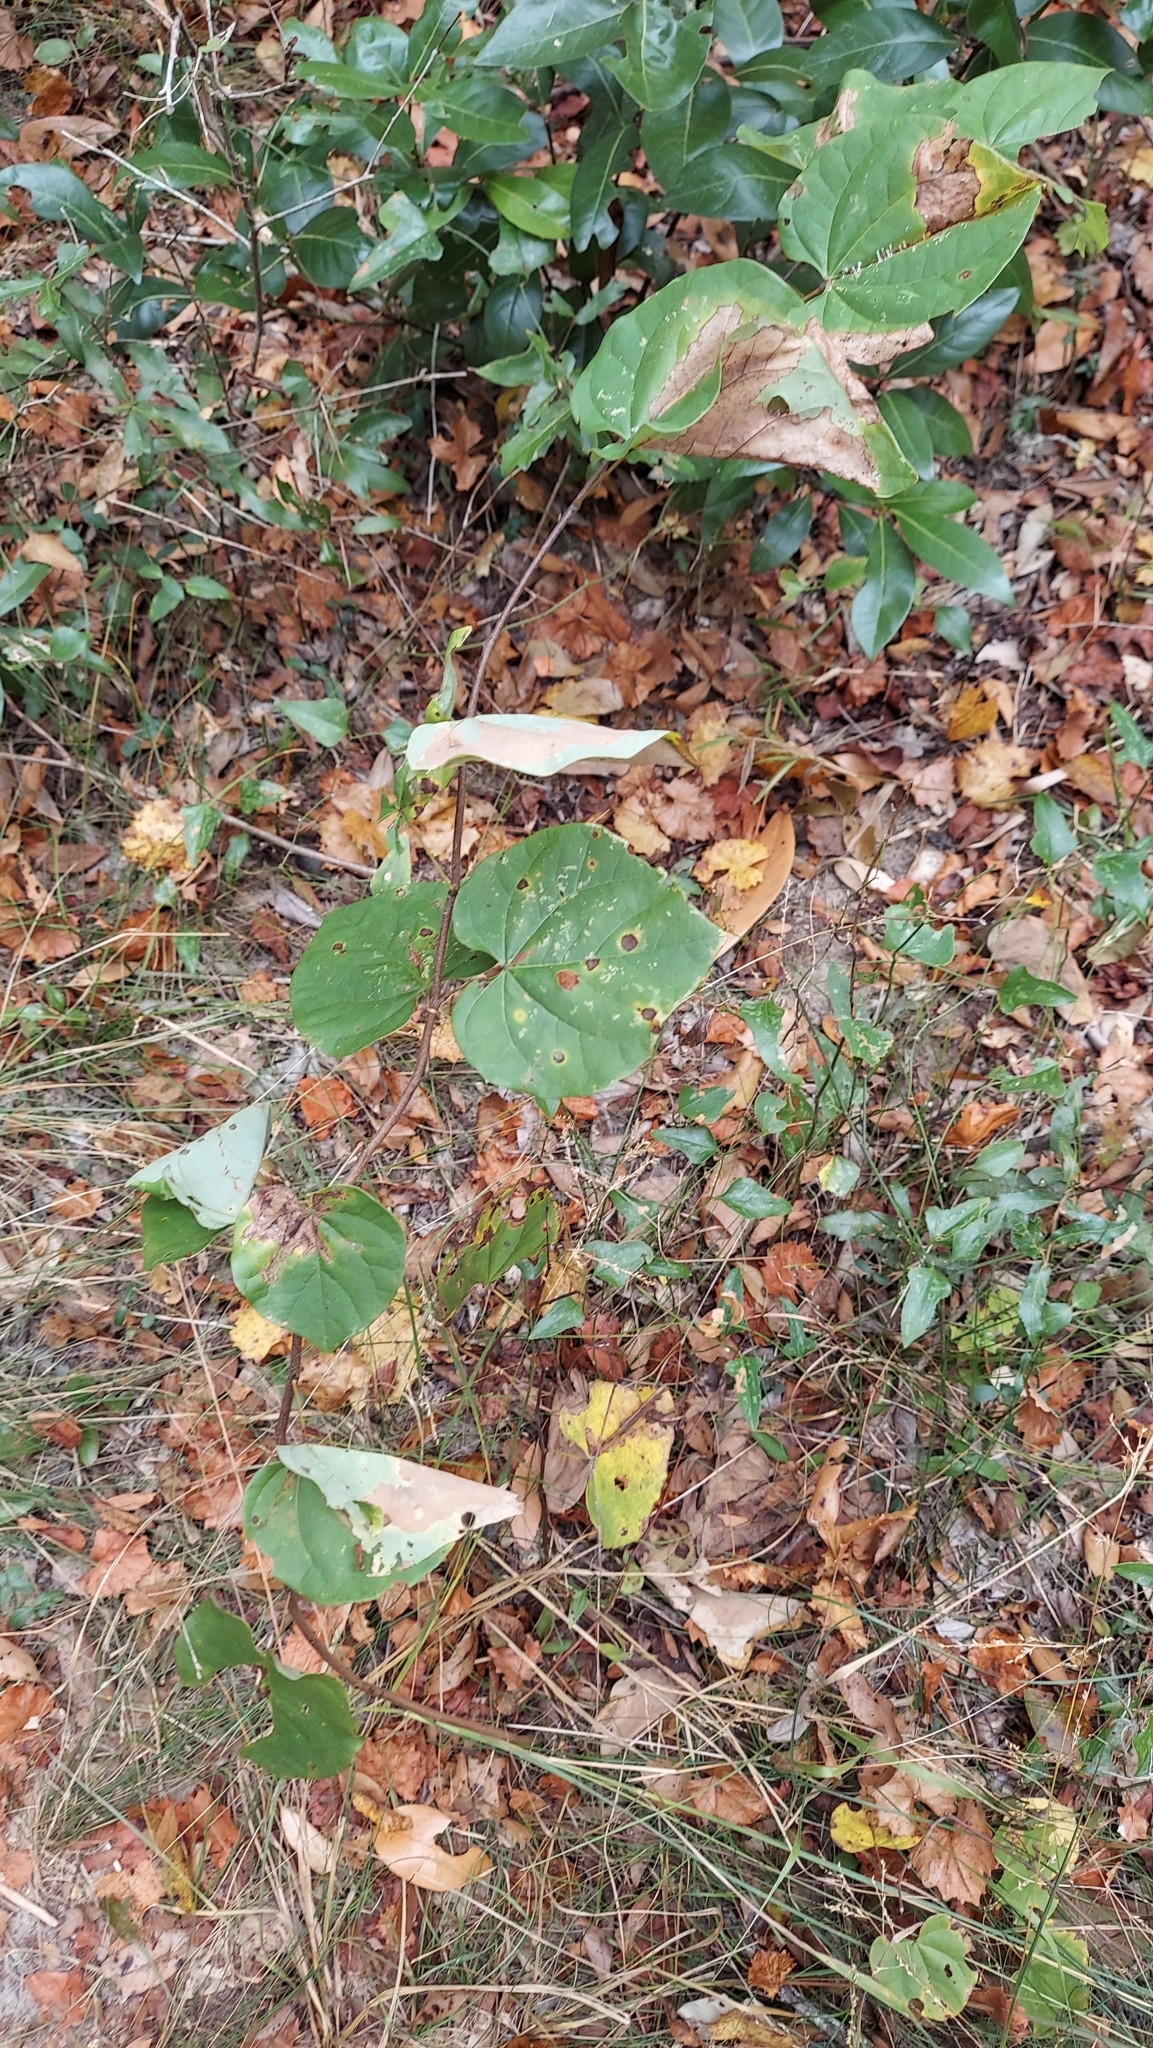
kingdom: Plantae
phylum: Tracheophyta
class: Magnoliopsida
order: Fabales
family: Fabaceae
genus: Cercis
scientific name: Cercis canadensis
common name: Eastern redbud
